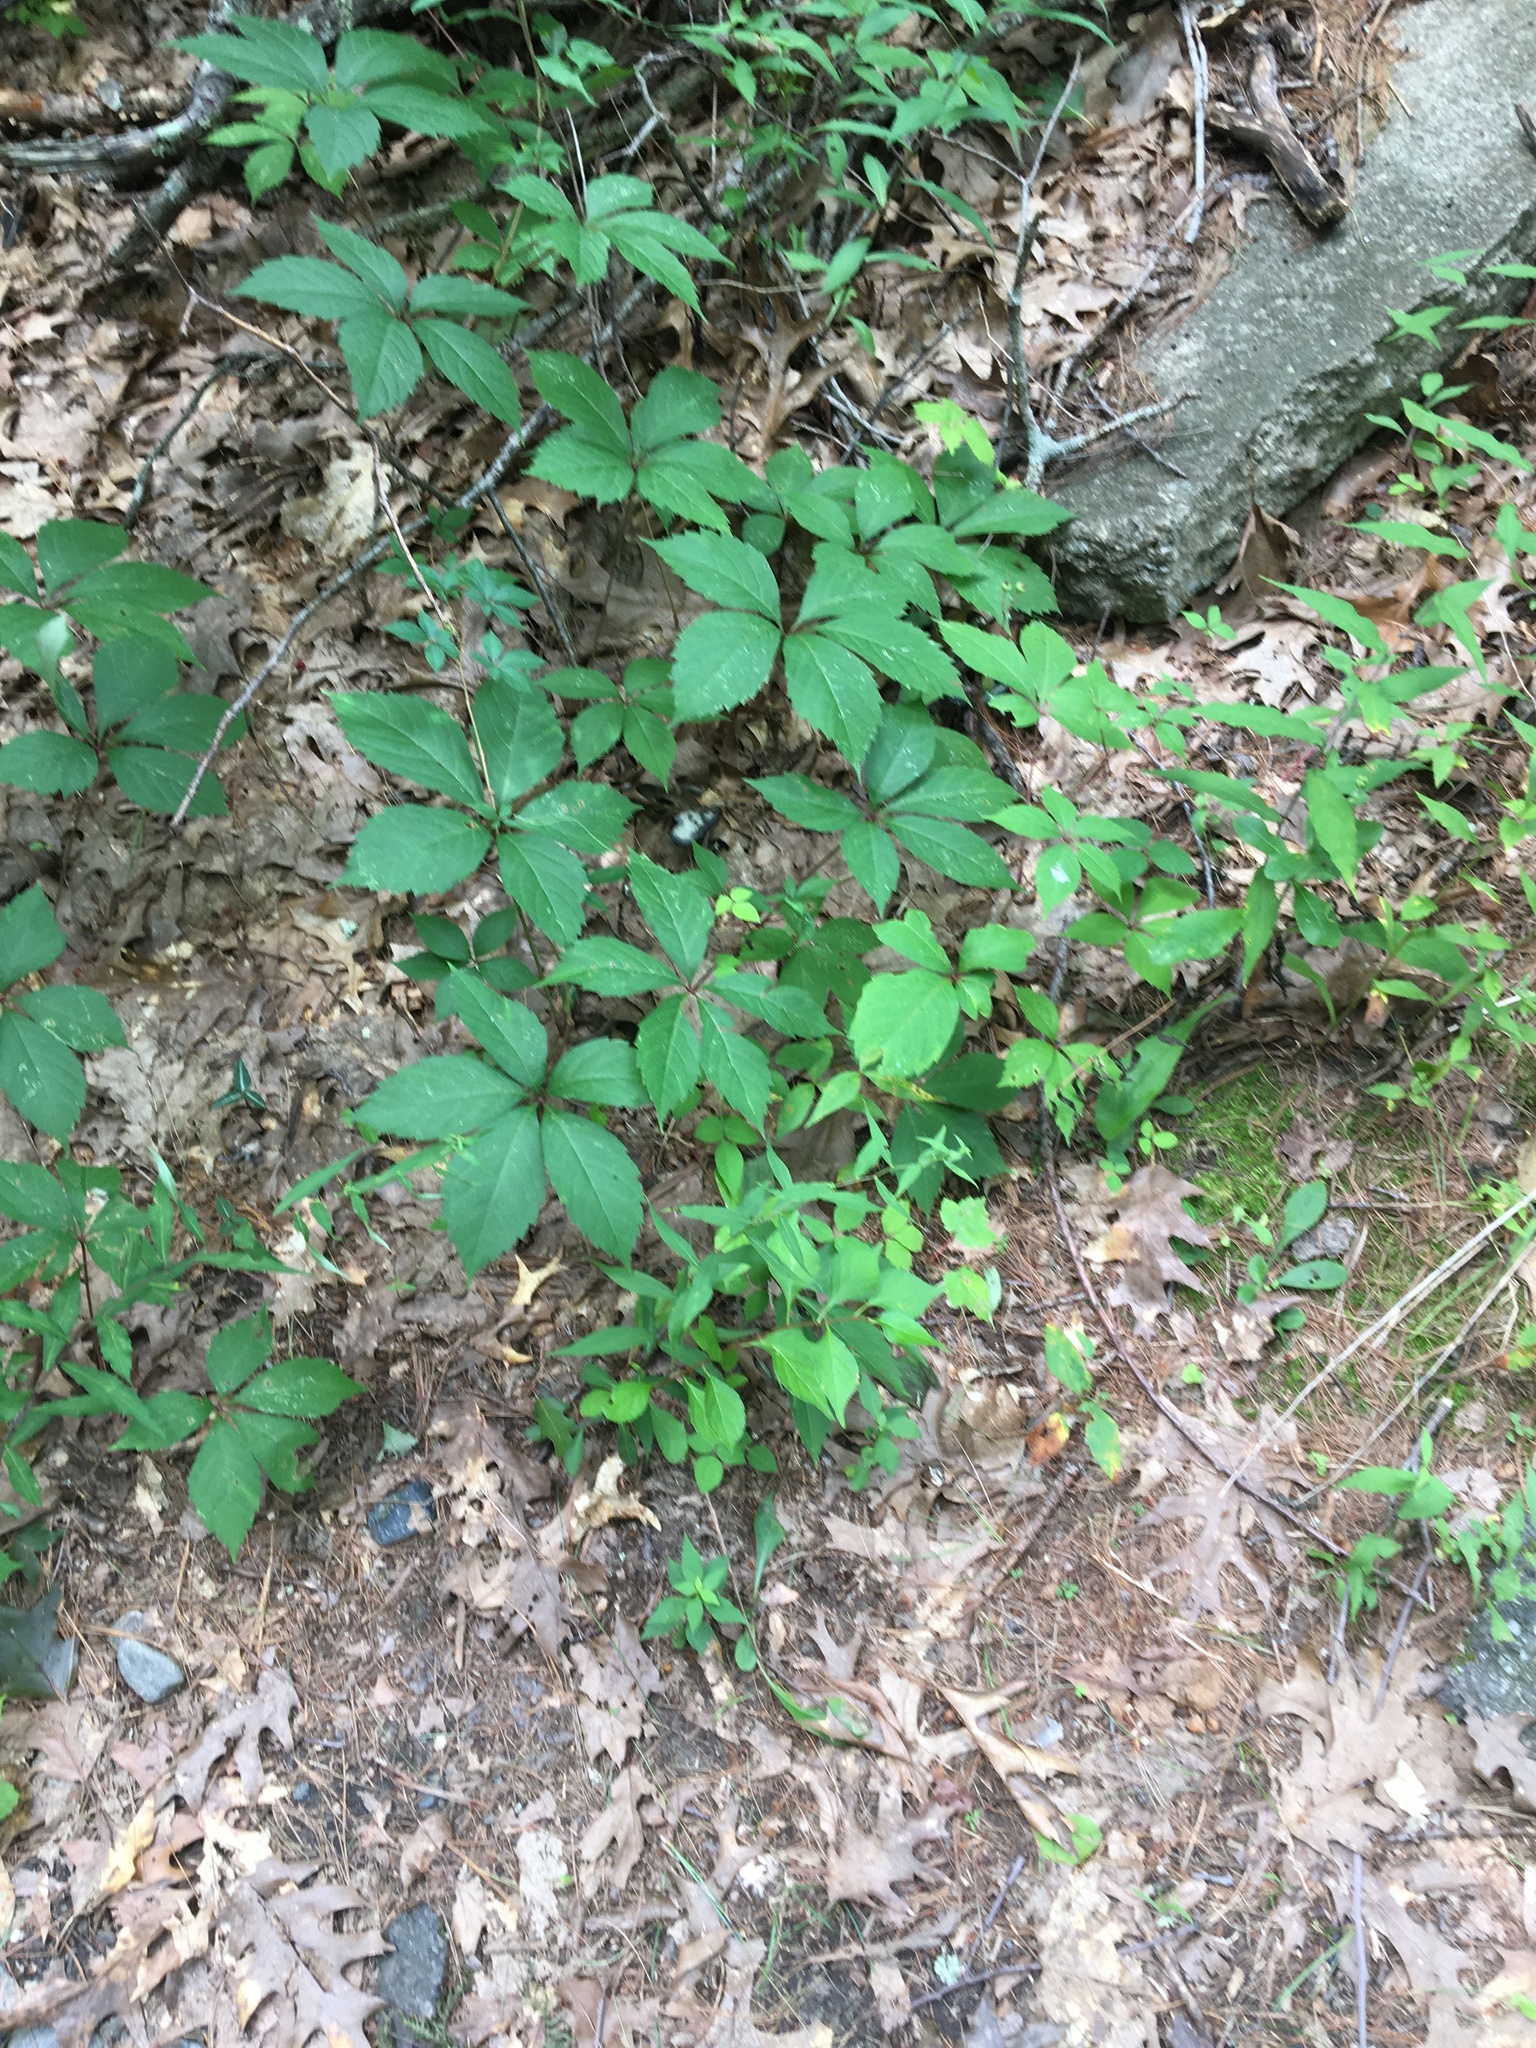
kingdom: Plantae
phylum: Tracheophyta
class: Magnoliopsida
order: Vitales
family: Vitaceae
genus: Parthenocissus
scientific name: Parthenocissus quinquefolia
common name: Virginia-creeper
